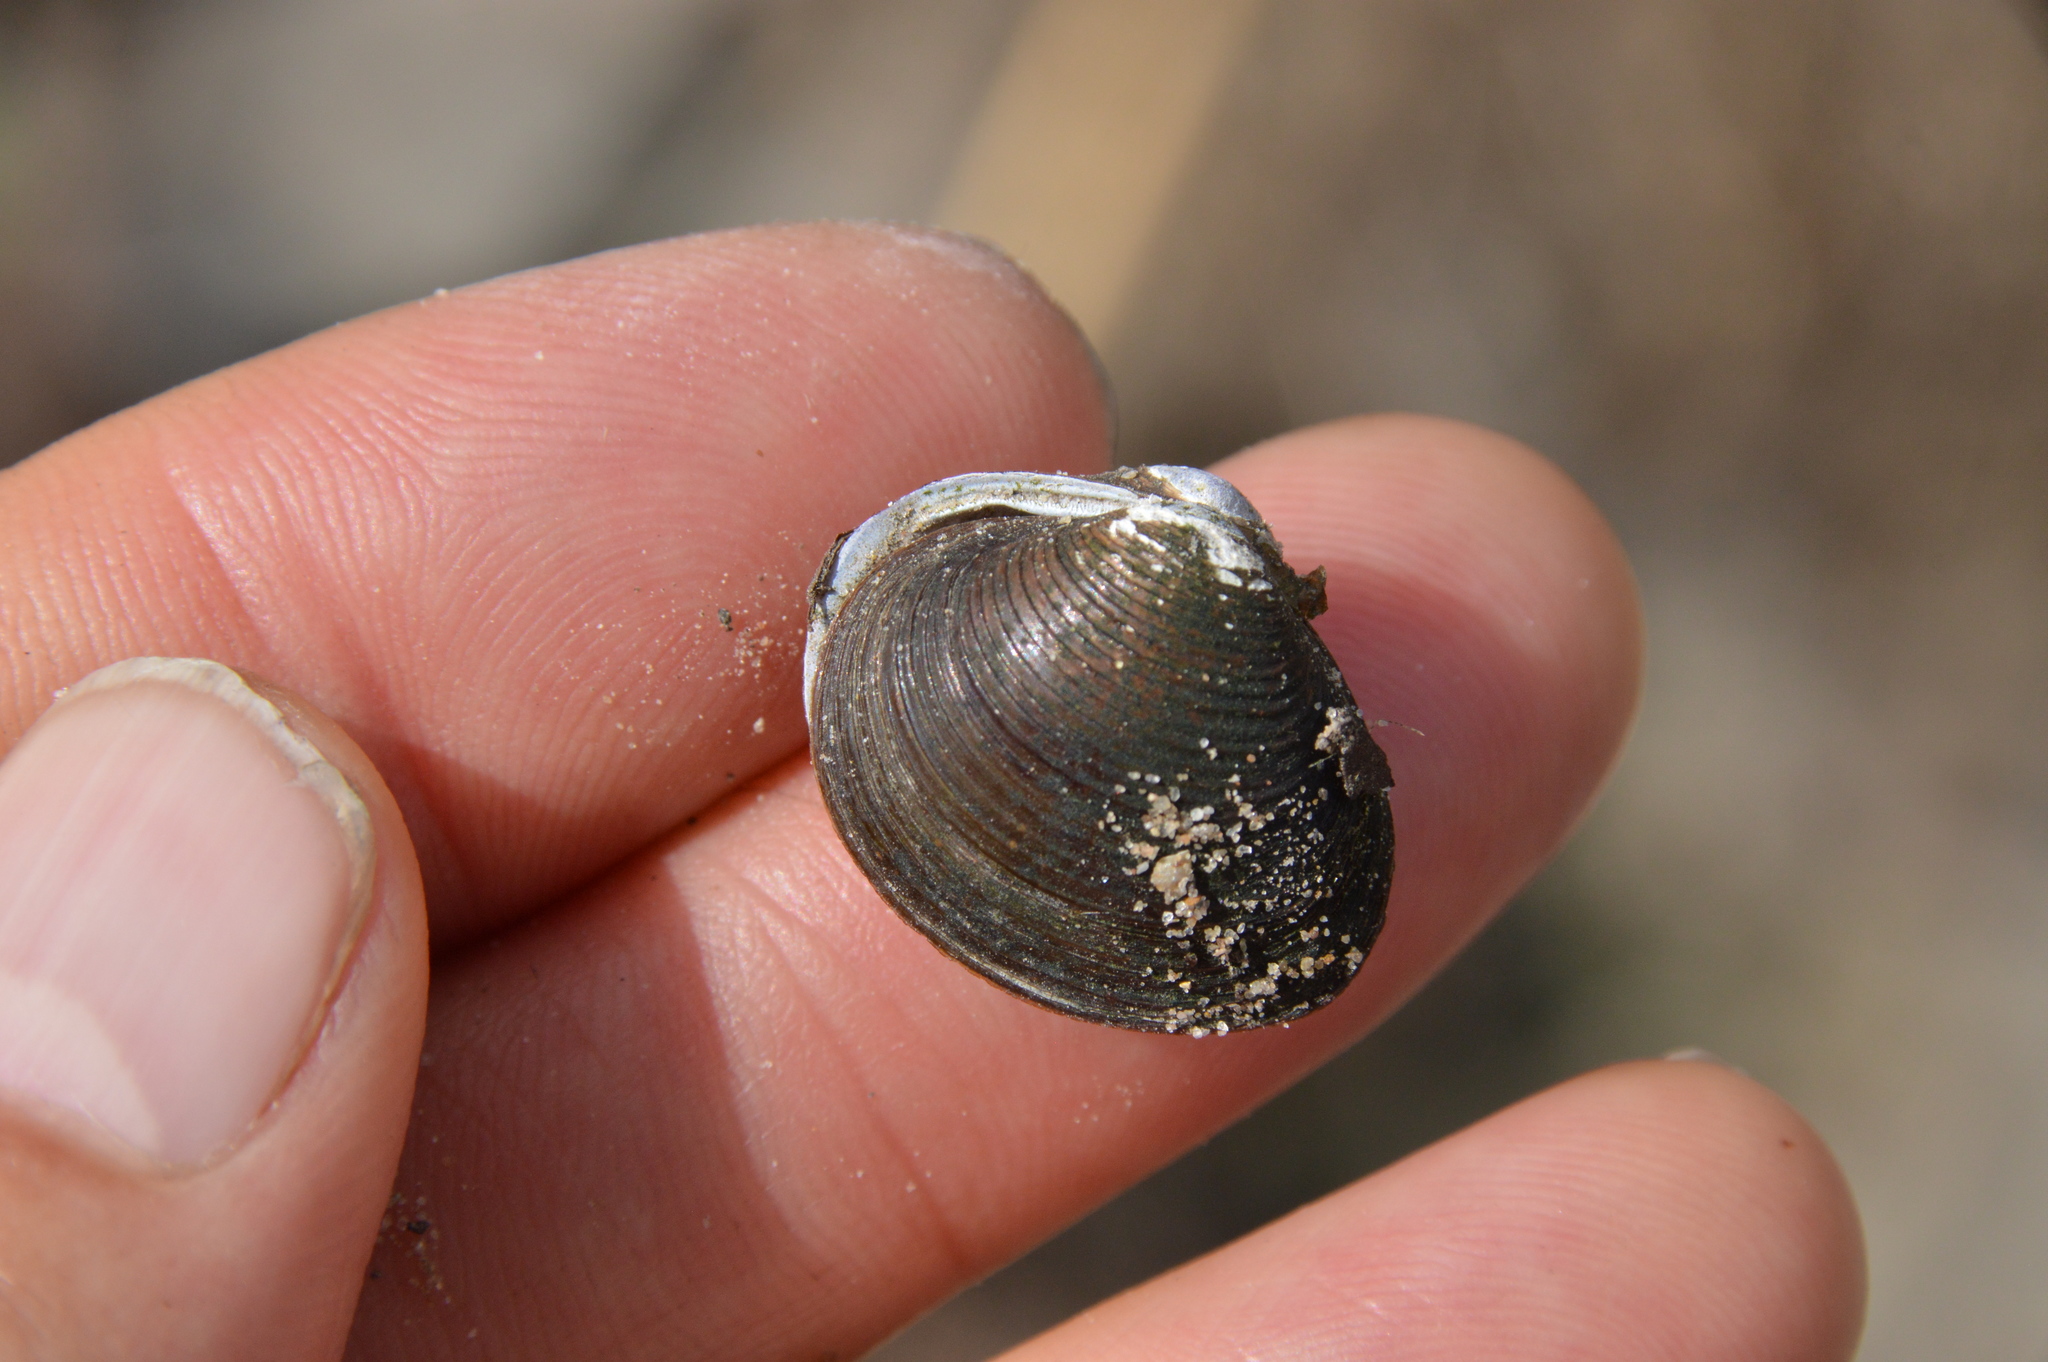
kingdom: Animalia
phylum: Mollusca
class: Bivalvia
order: Venerida
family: Cyrenidae
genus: Corbicula
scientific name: Corbicula fluminea
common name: Asian clam
